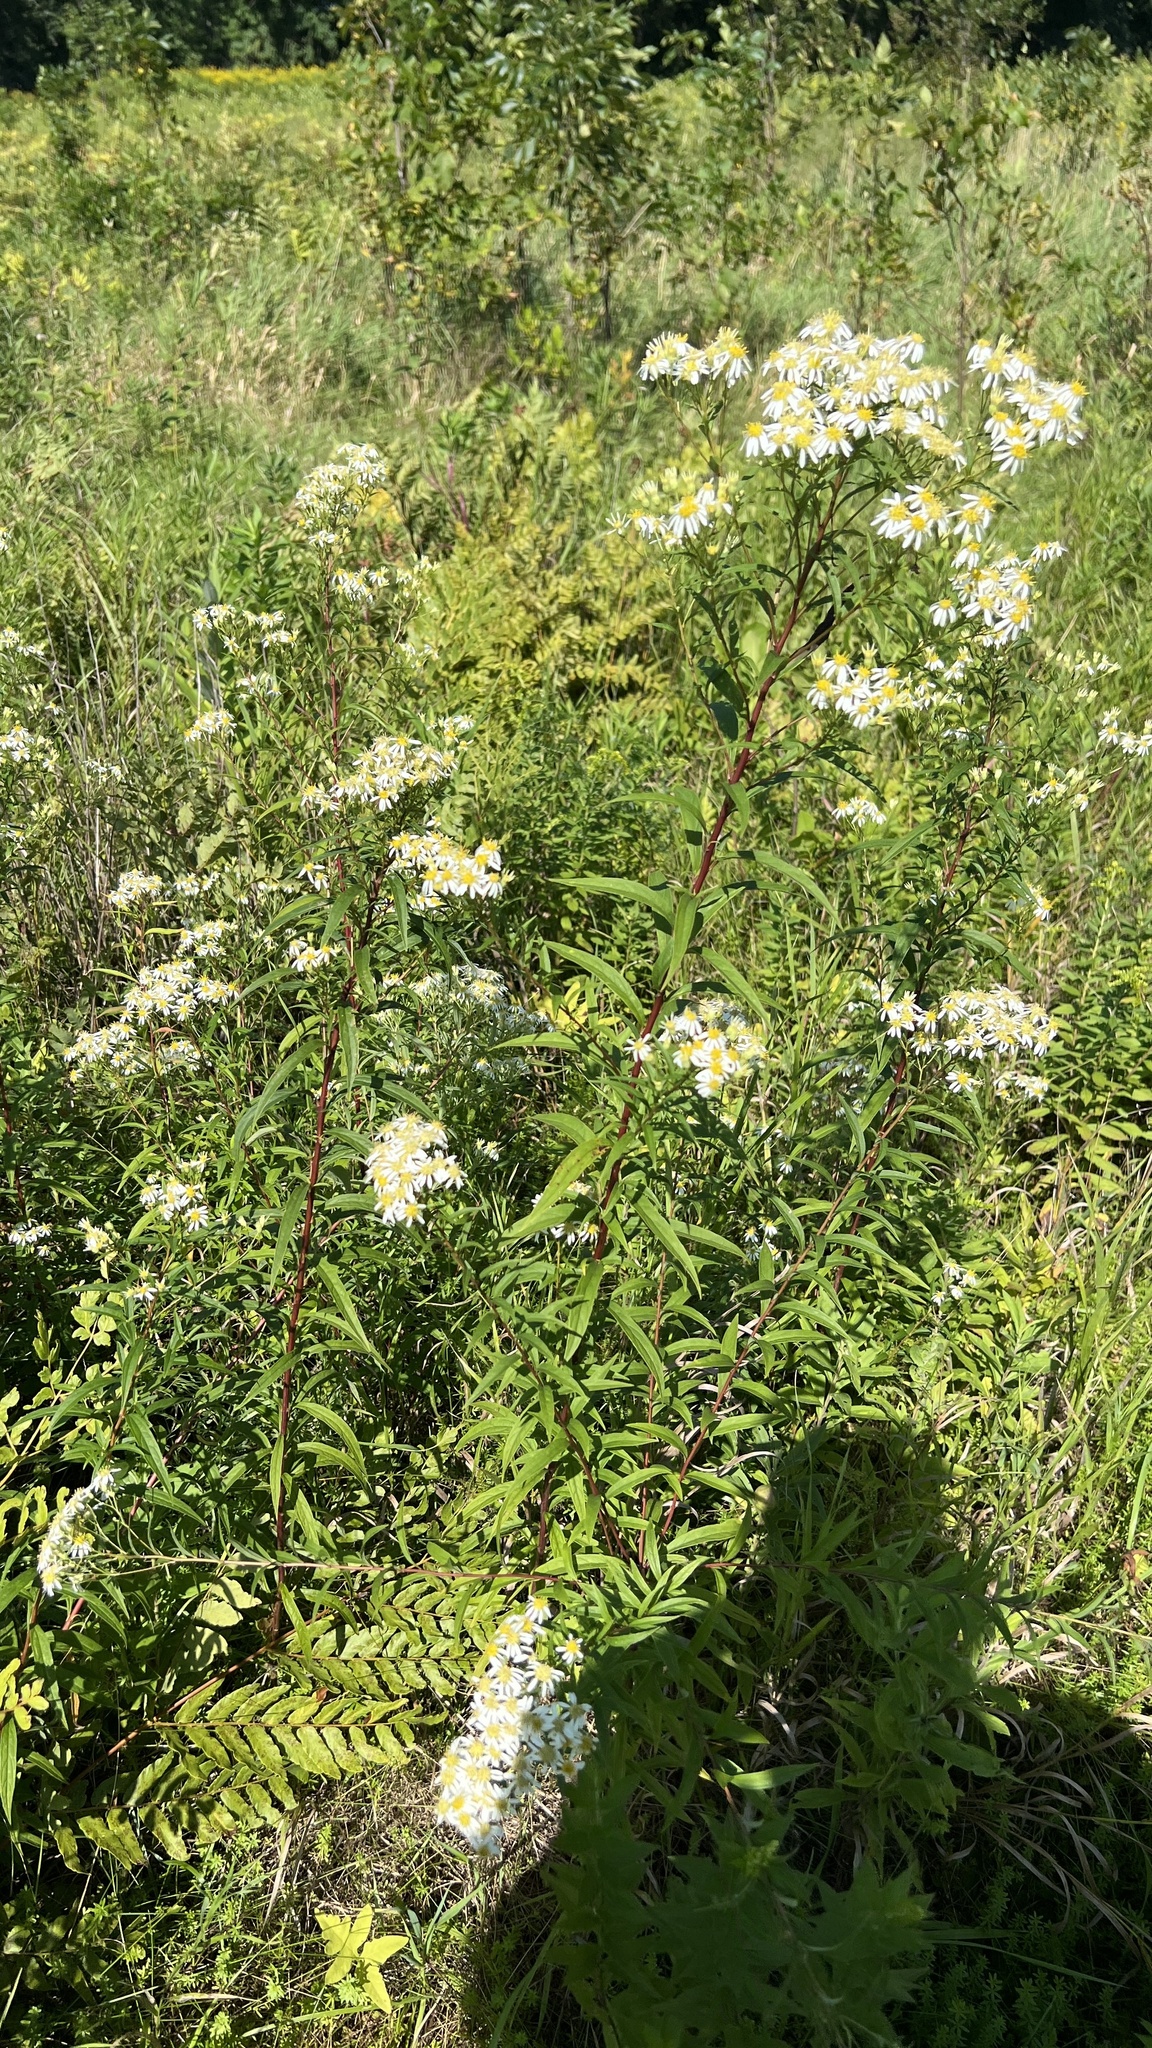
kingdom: Plantae
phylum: Tracheophyta
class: Magnoliopsida
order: Asterales
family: Asteraceae
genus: Doellingeria
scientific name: Doellingeria umbellata
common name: Flat-top white aster
